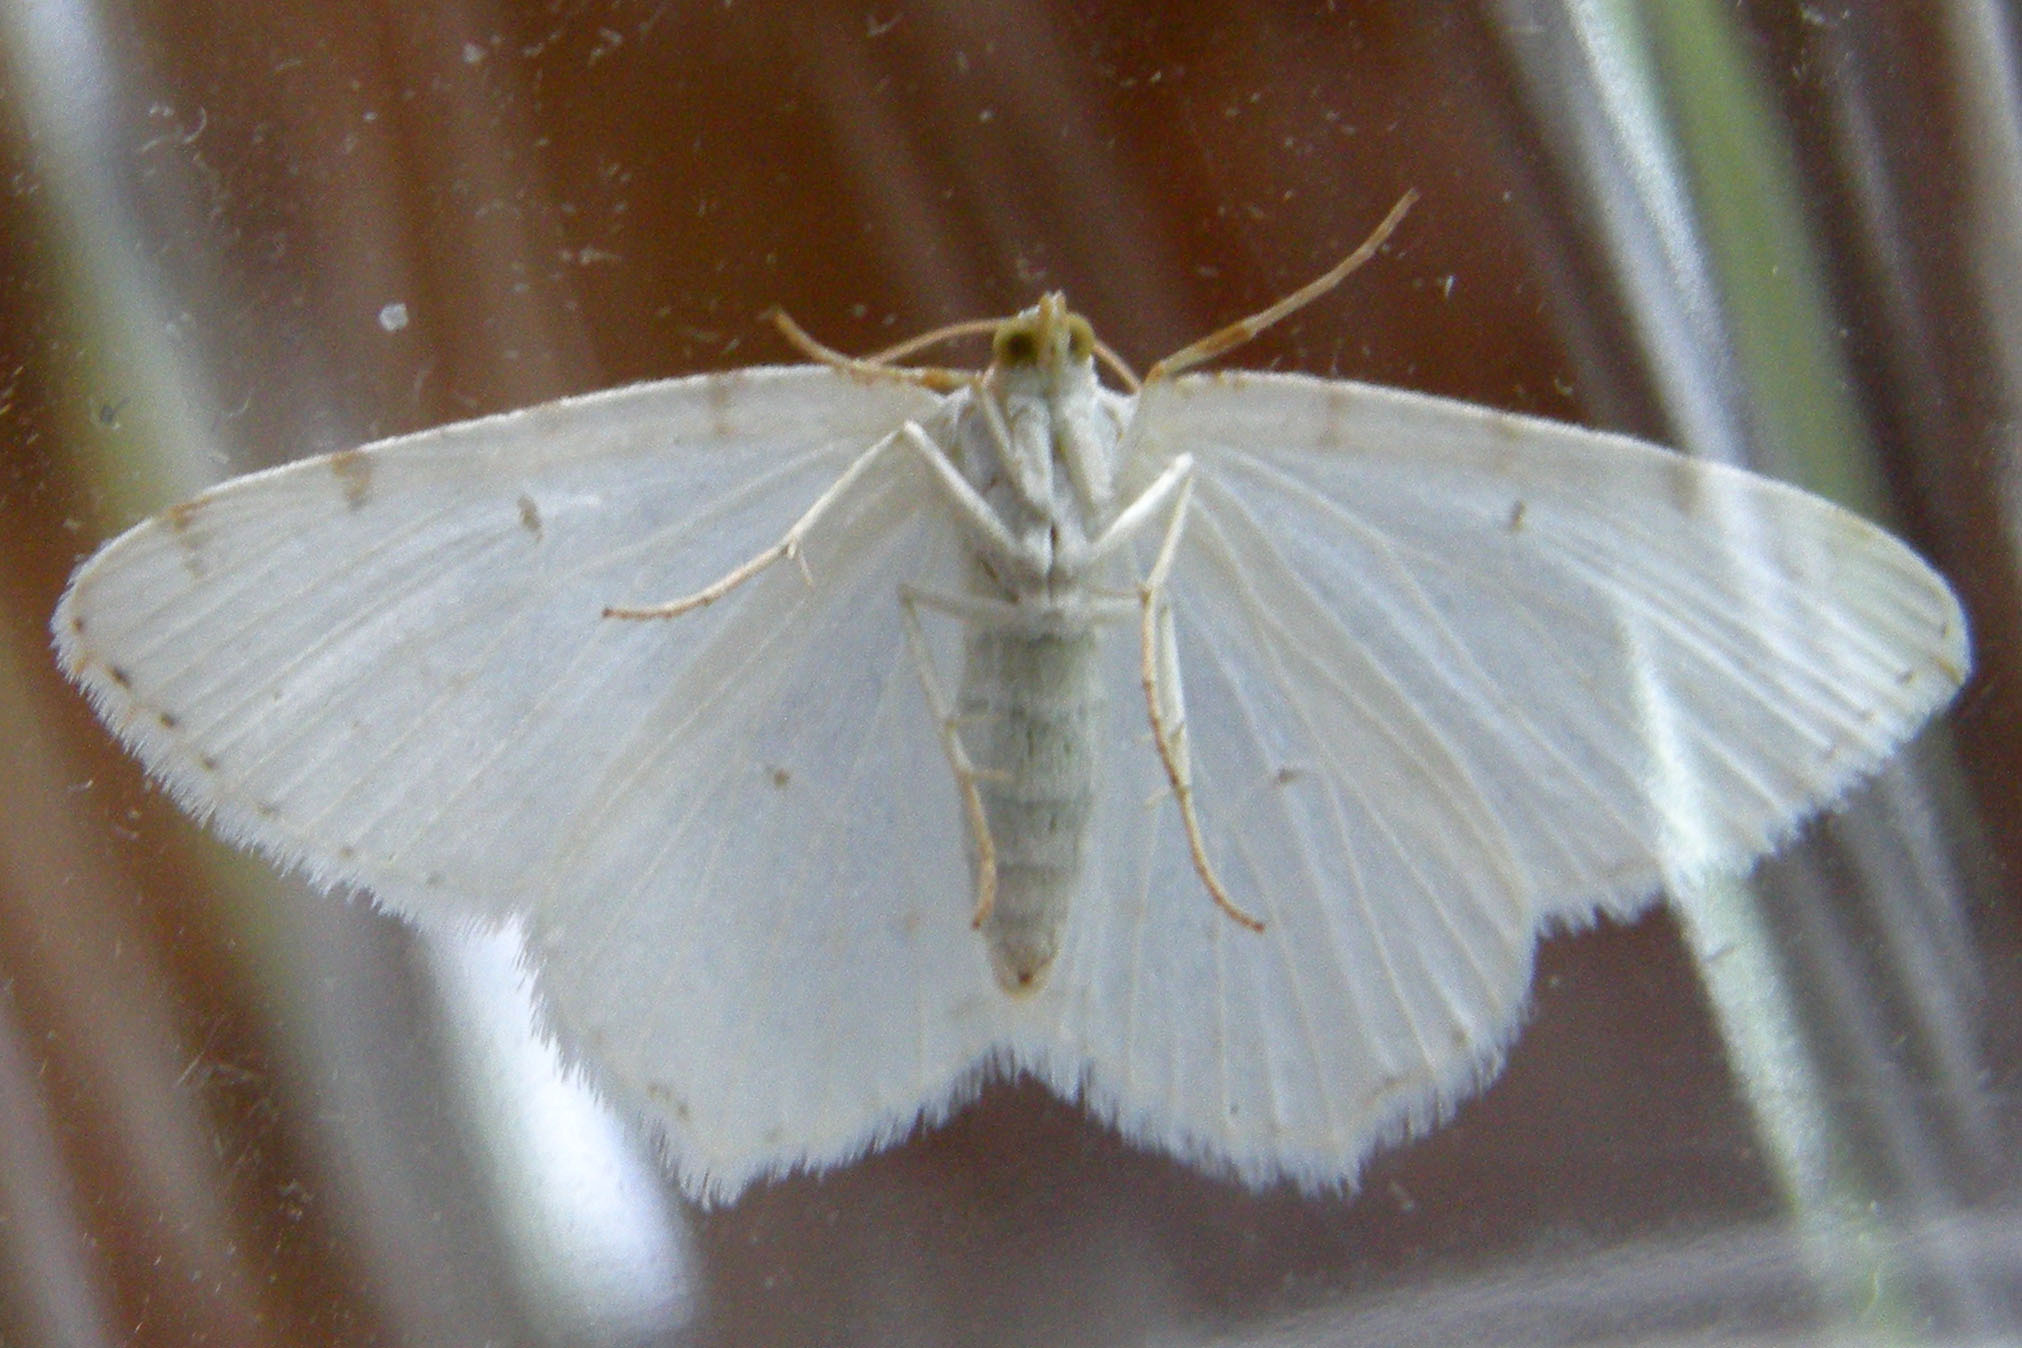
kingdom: Animalia
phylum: Arthropoda
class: Insecta
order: Lepidoptera
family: Geometridae
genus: Macaria
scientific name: Macaria pustularia
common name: Lesser maple spanworm moth
